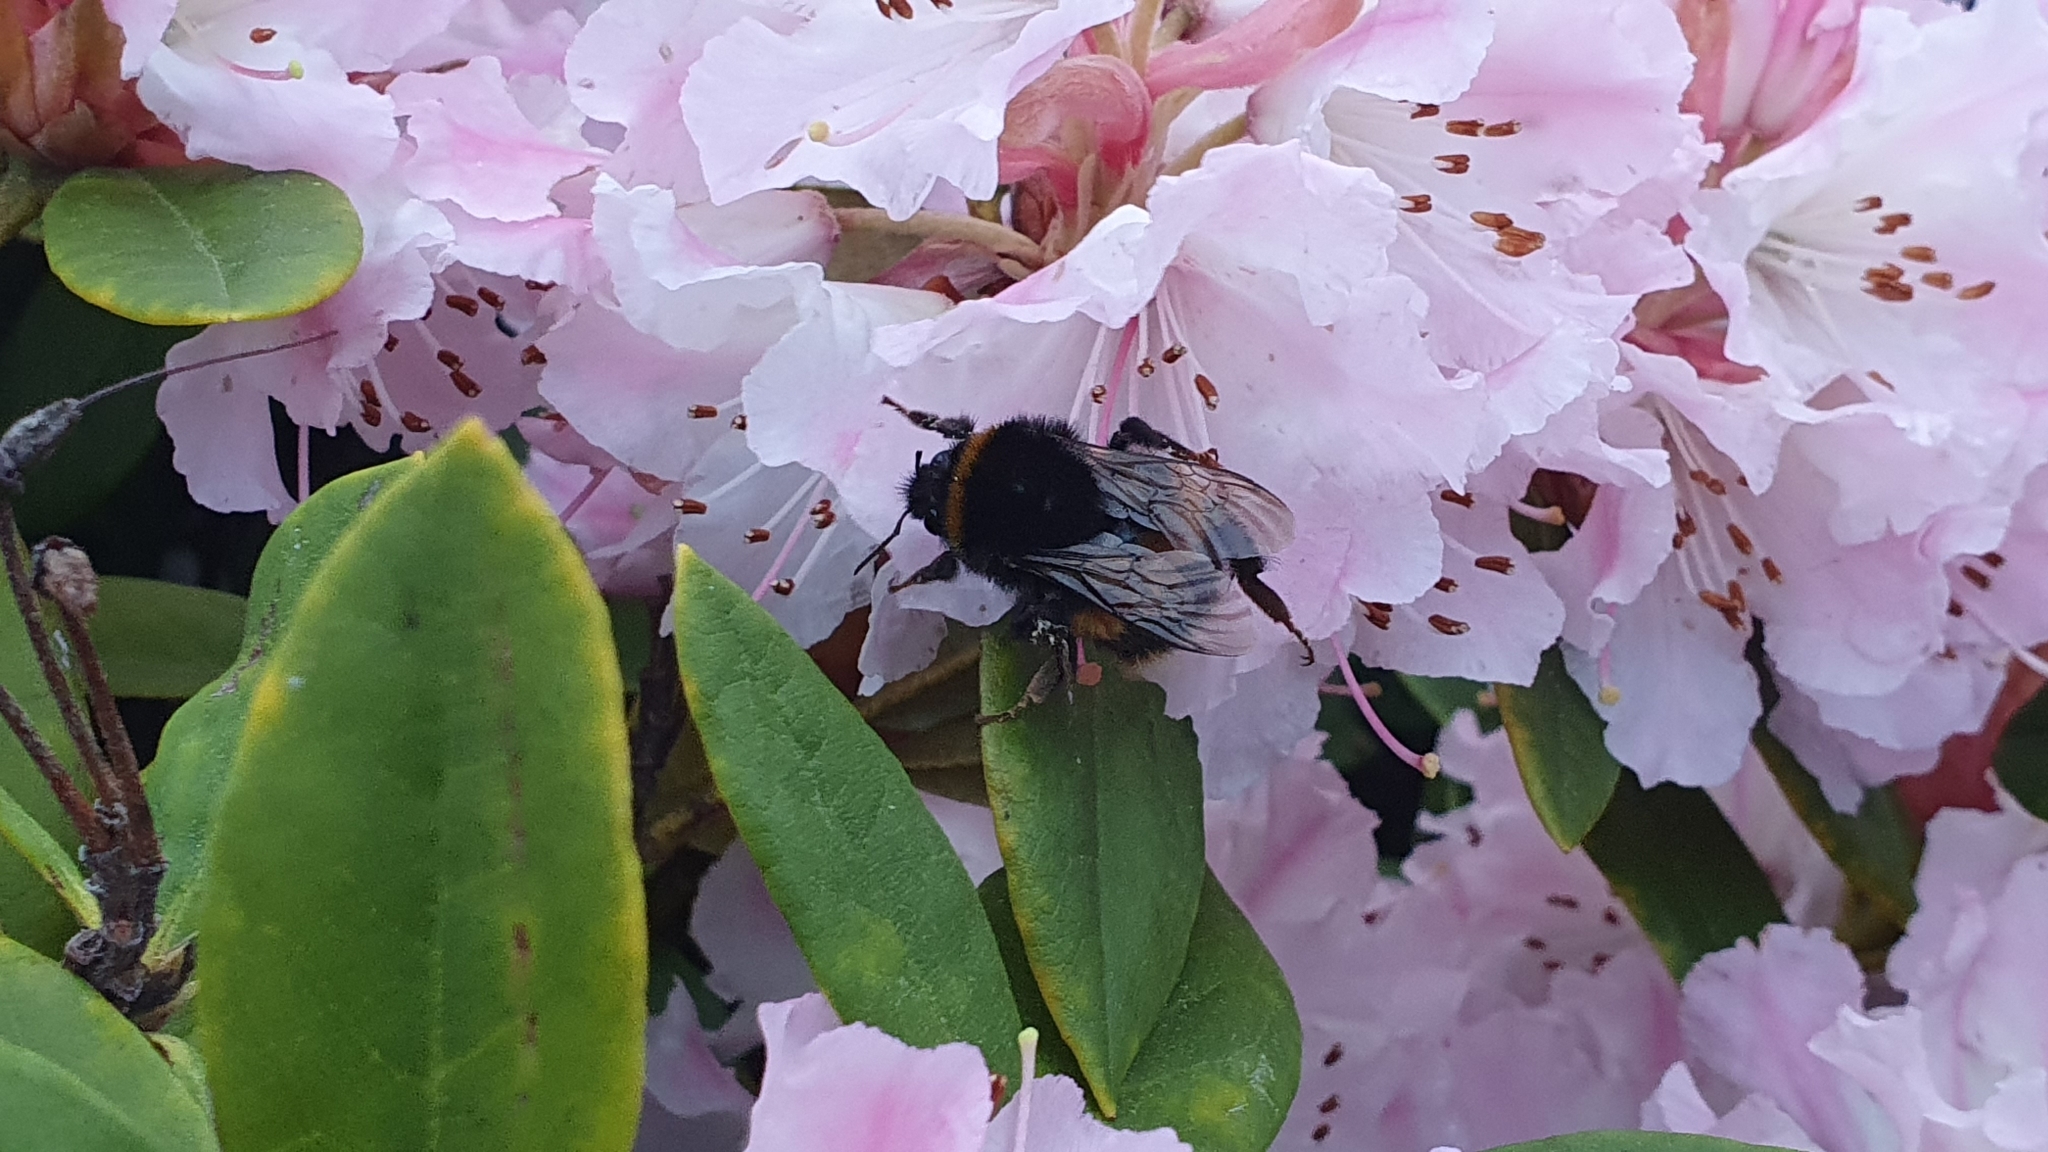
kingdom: Animalia
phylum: Arthropoda
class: Insecta
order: Hymenoptera
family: Apidae
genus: Bombus
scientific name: Bombus terrestris
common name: Buff-tailed bumblebee
